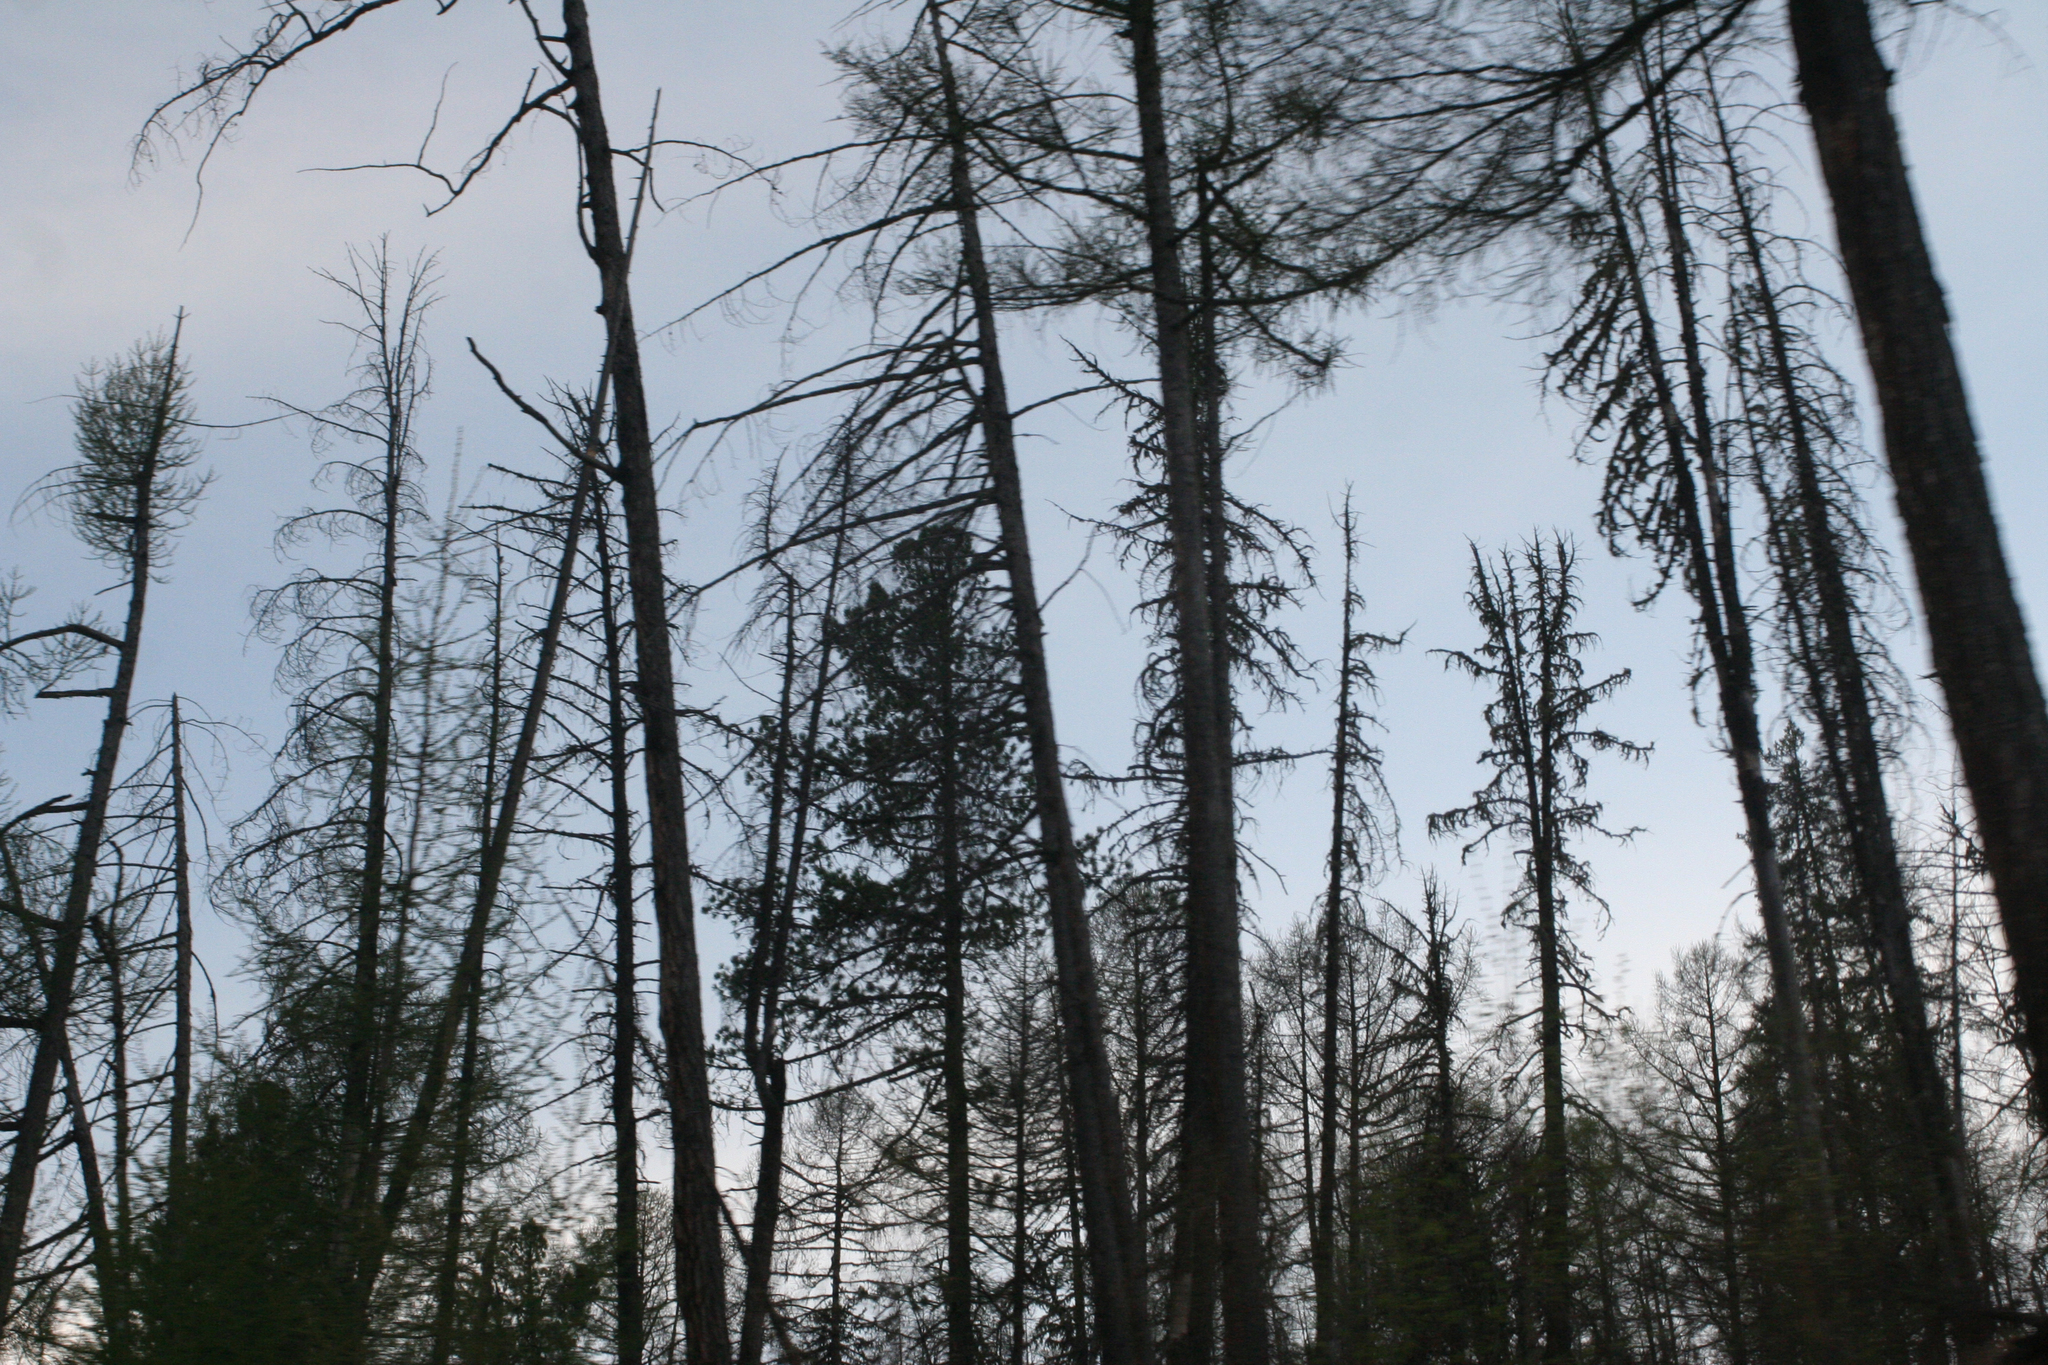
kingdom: Plantae
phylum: Tracheophyta
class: Pinopsida
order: Pinales
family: Pinaceae
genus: Larix
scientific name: Larix sibirica
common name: Siberian larch
